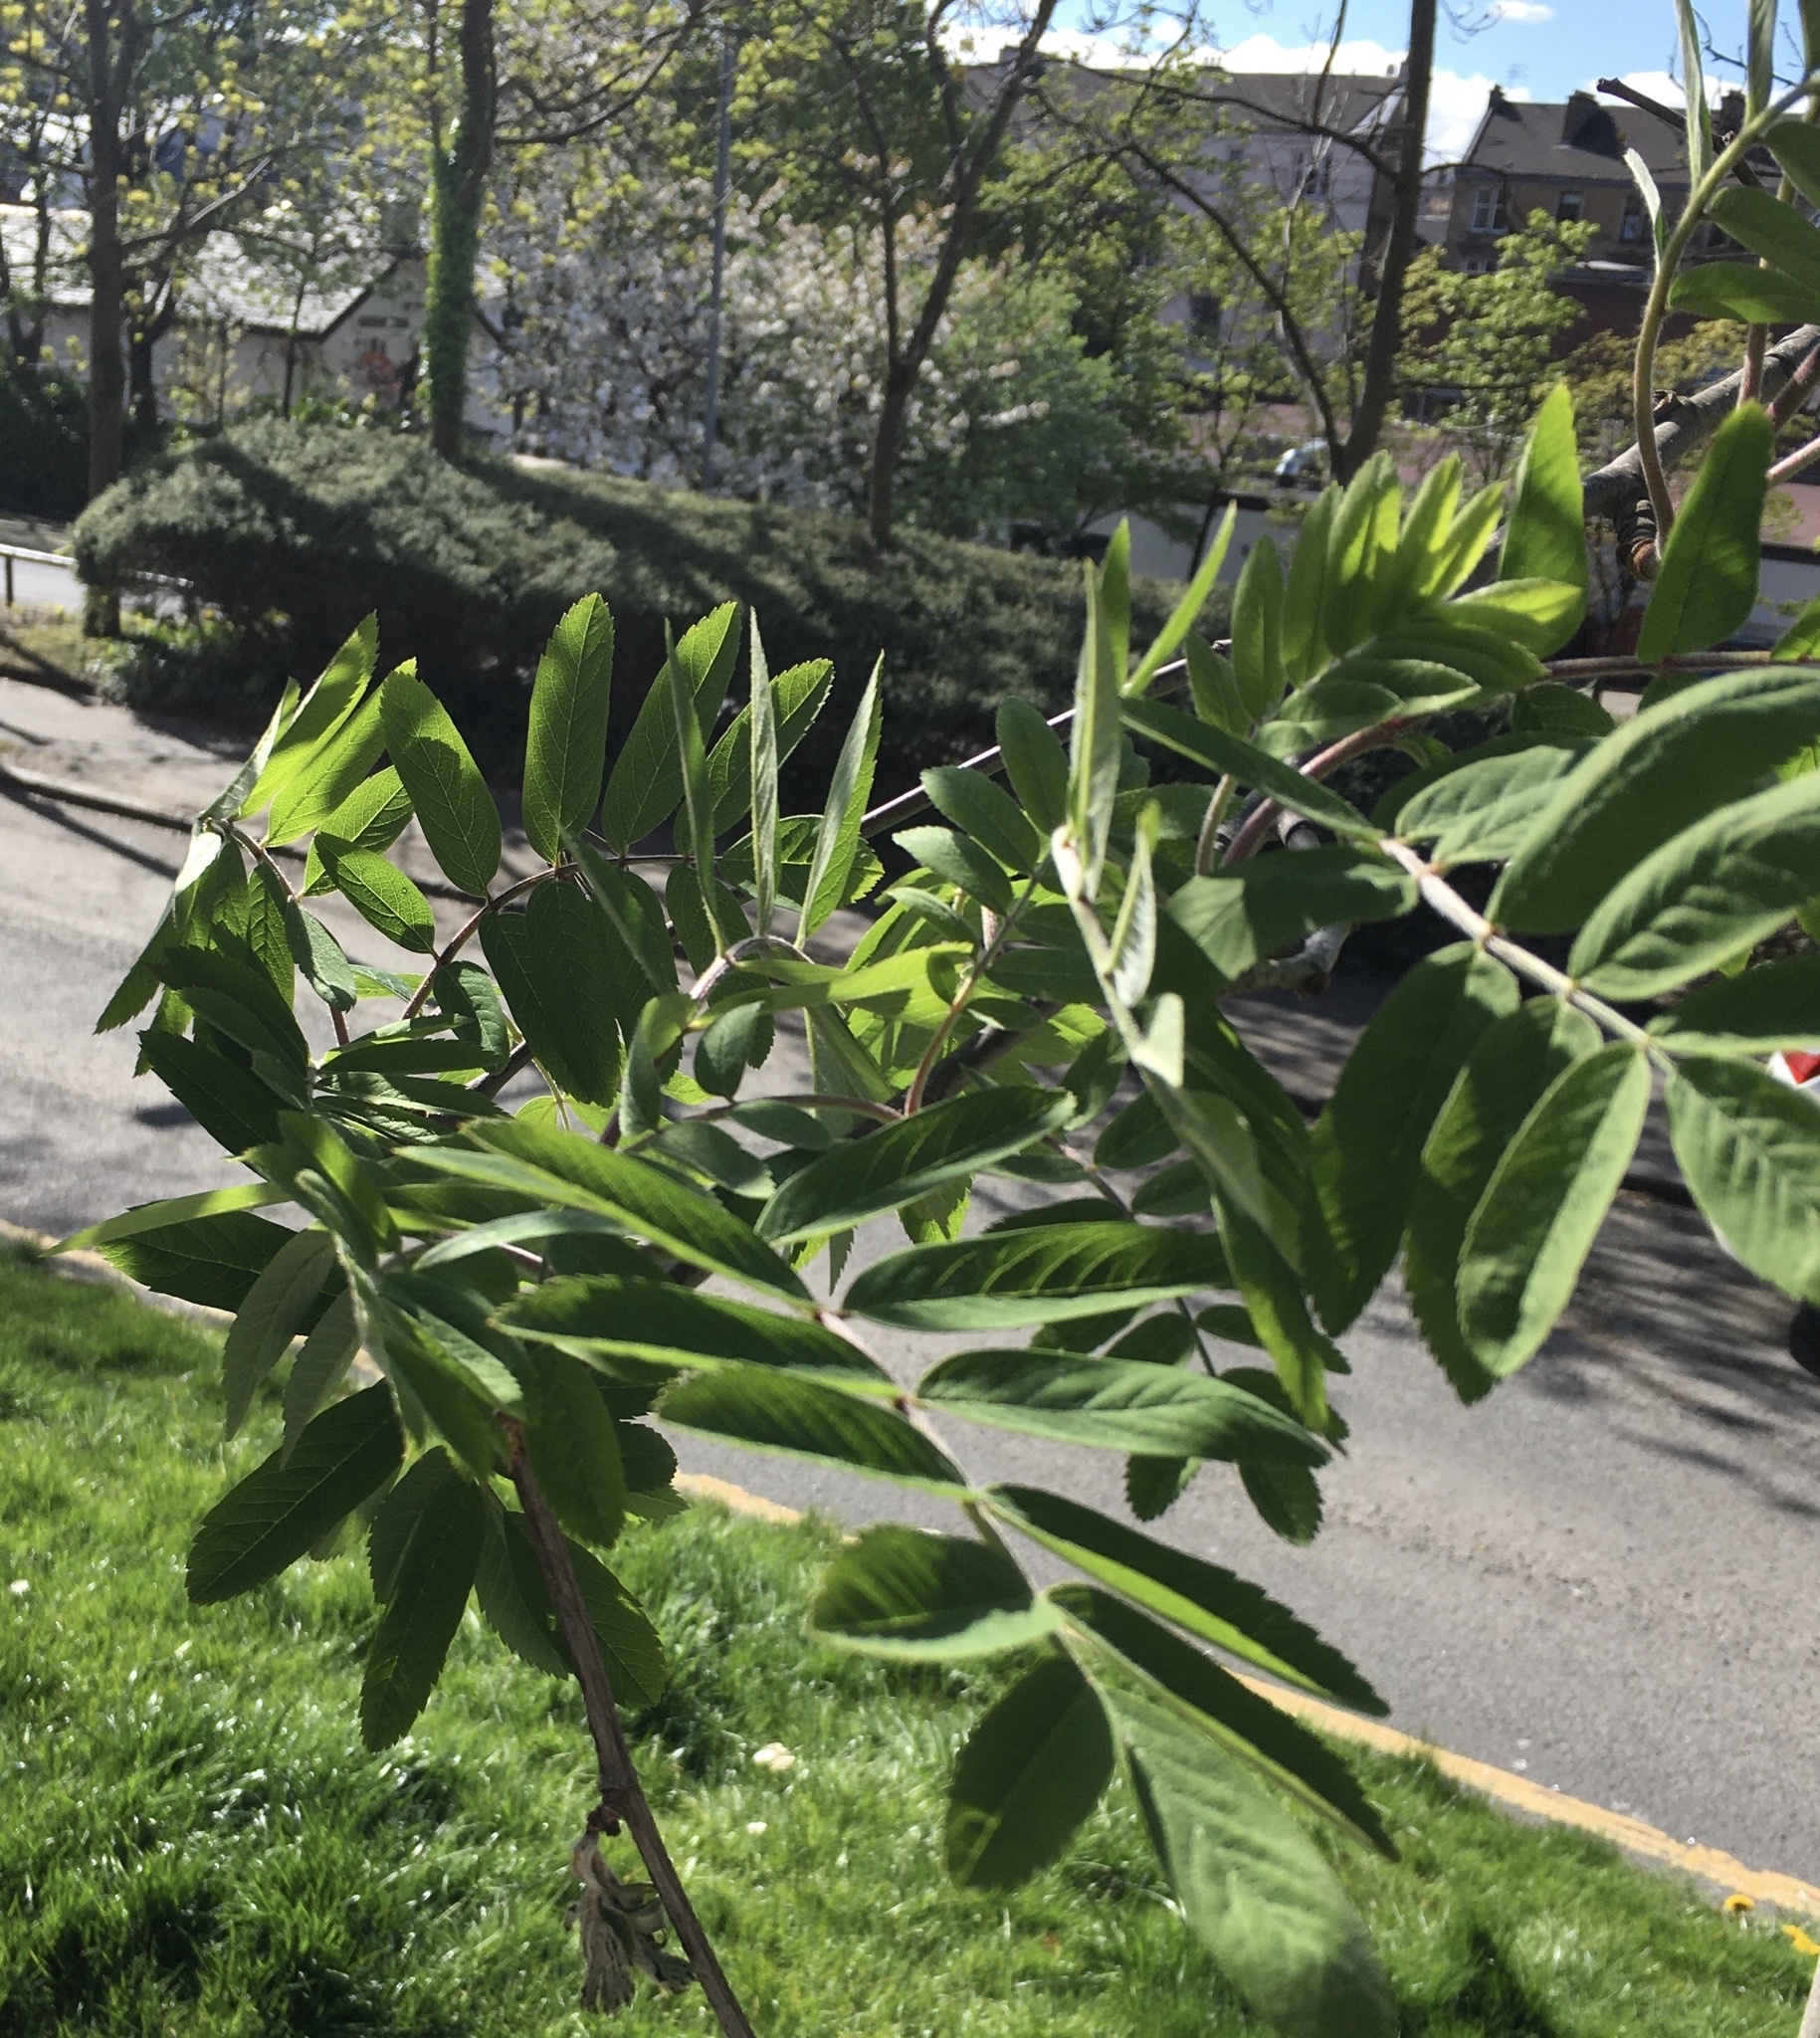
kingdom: Plantae
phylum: Tracheophyta
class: Magnoliopsida
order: Rosales
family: Rosaceae
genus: Sorbus
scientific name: Sorbus aucuparia
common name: Rowan
